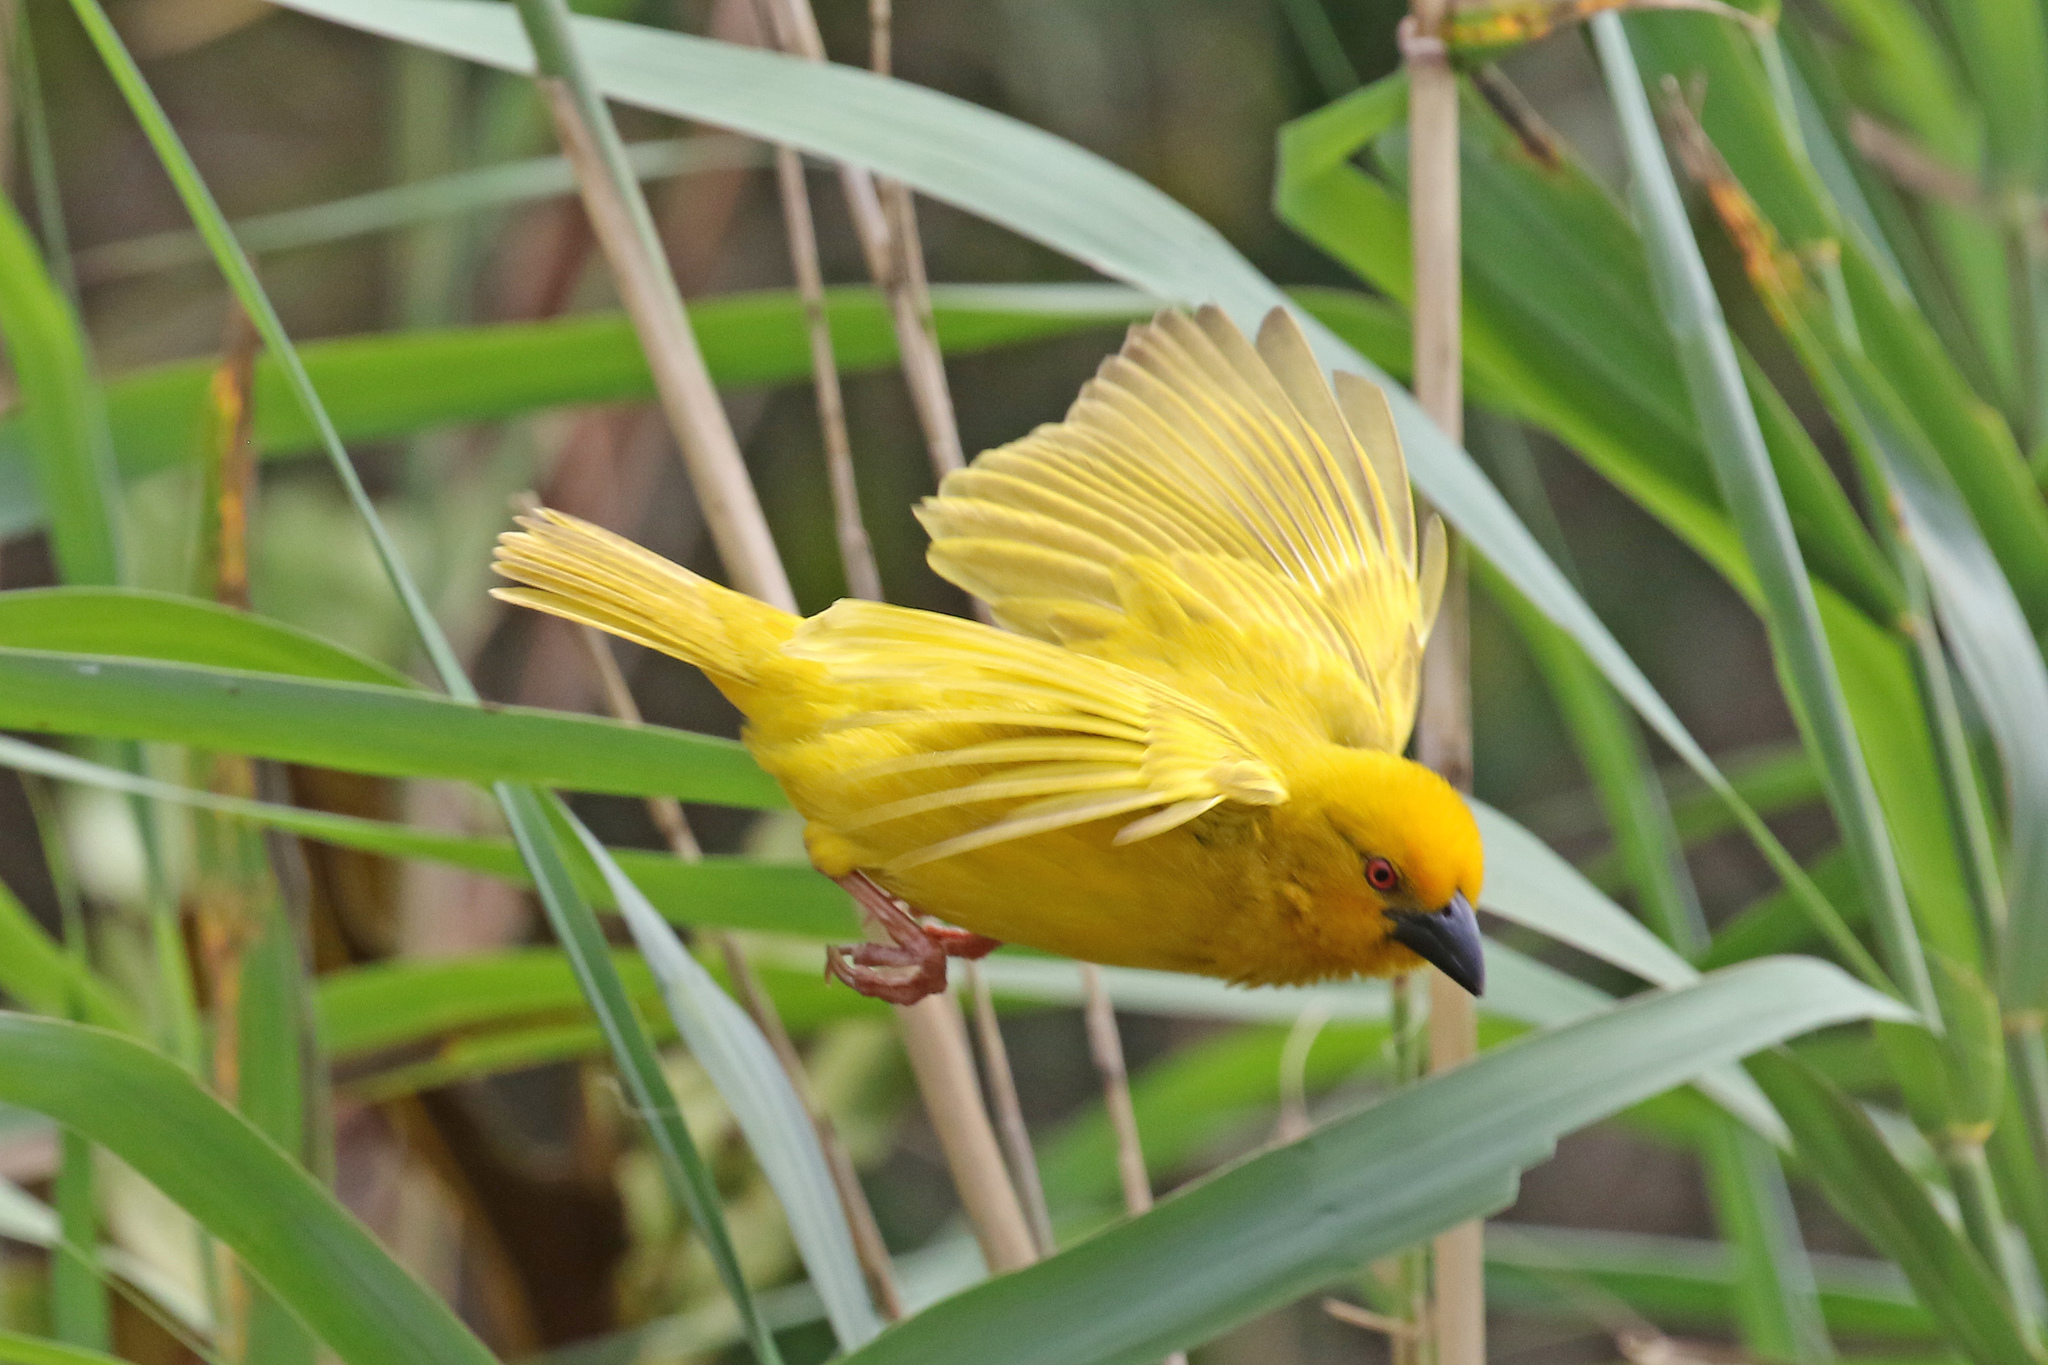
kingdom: Animalia
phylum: Chordata
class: Aves
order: Passeriformes
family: Ploceidae
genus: Ploceus
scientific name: Ploceus subaureus
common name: Yellow weaver
